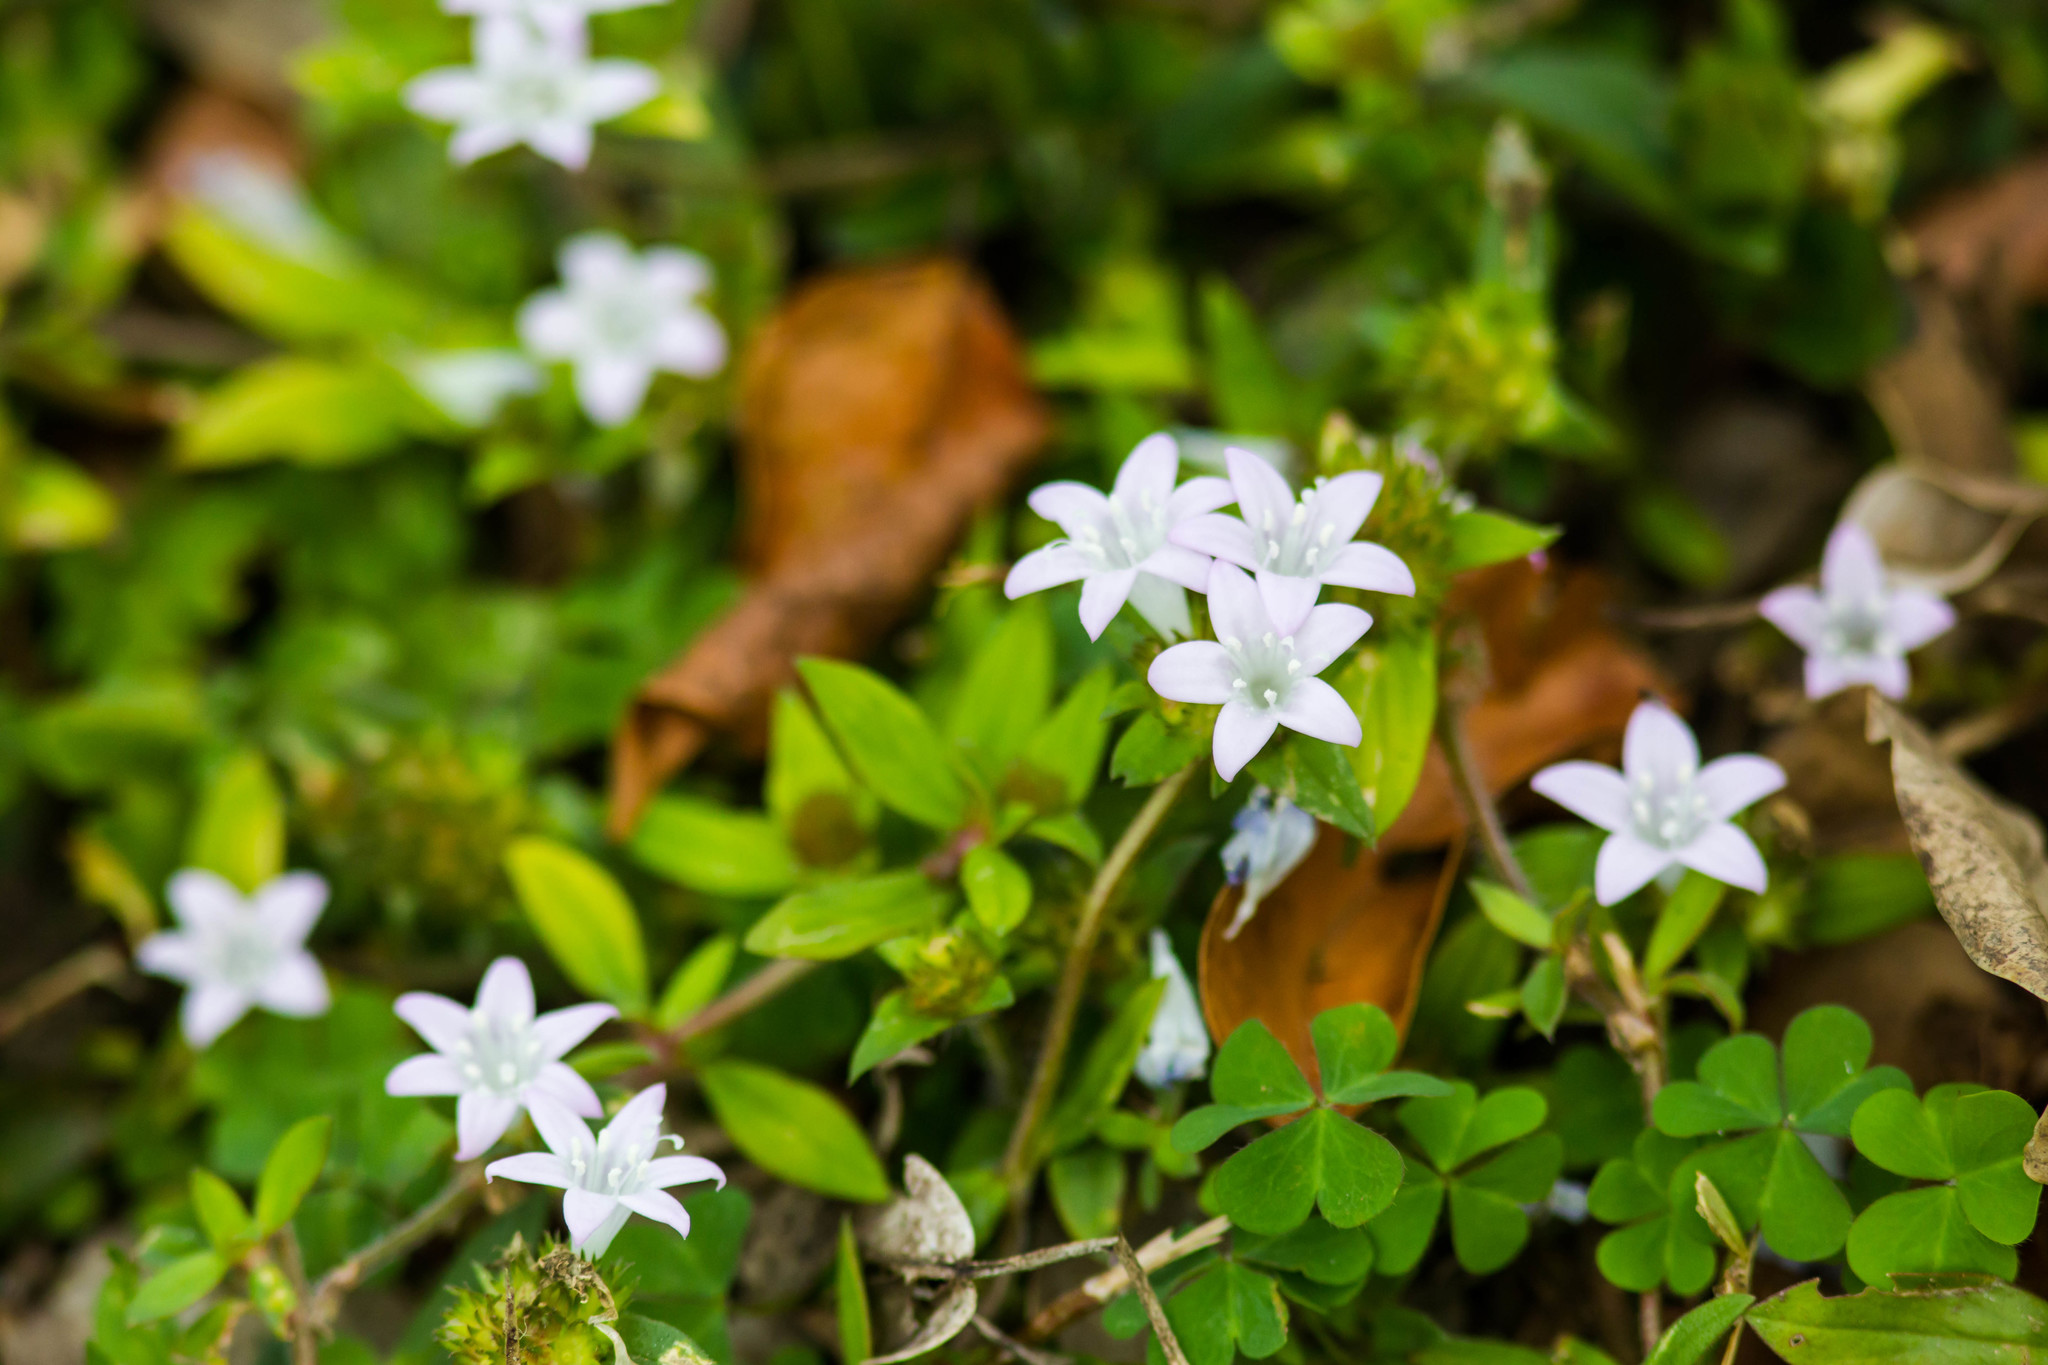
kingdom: Plantae
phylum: Tracheophyta
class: Magnoliopsida
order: Gentianales
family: Rubiaceae
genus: Richardia
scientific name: Richardia grandiflora
